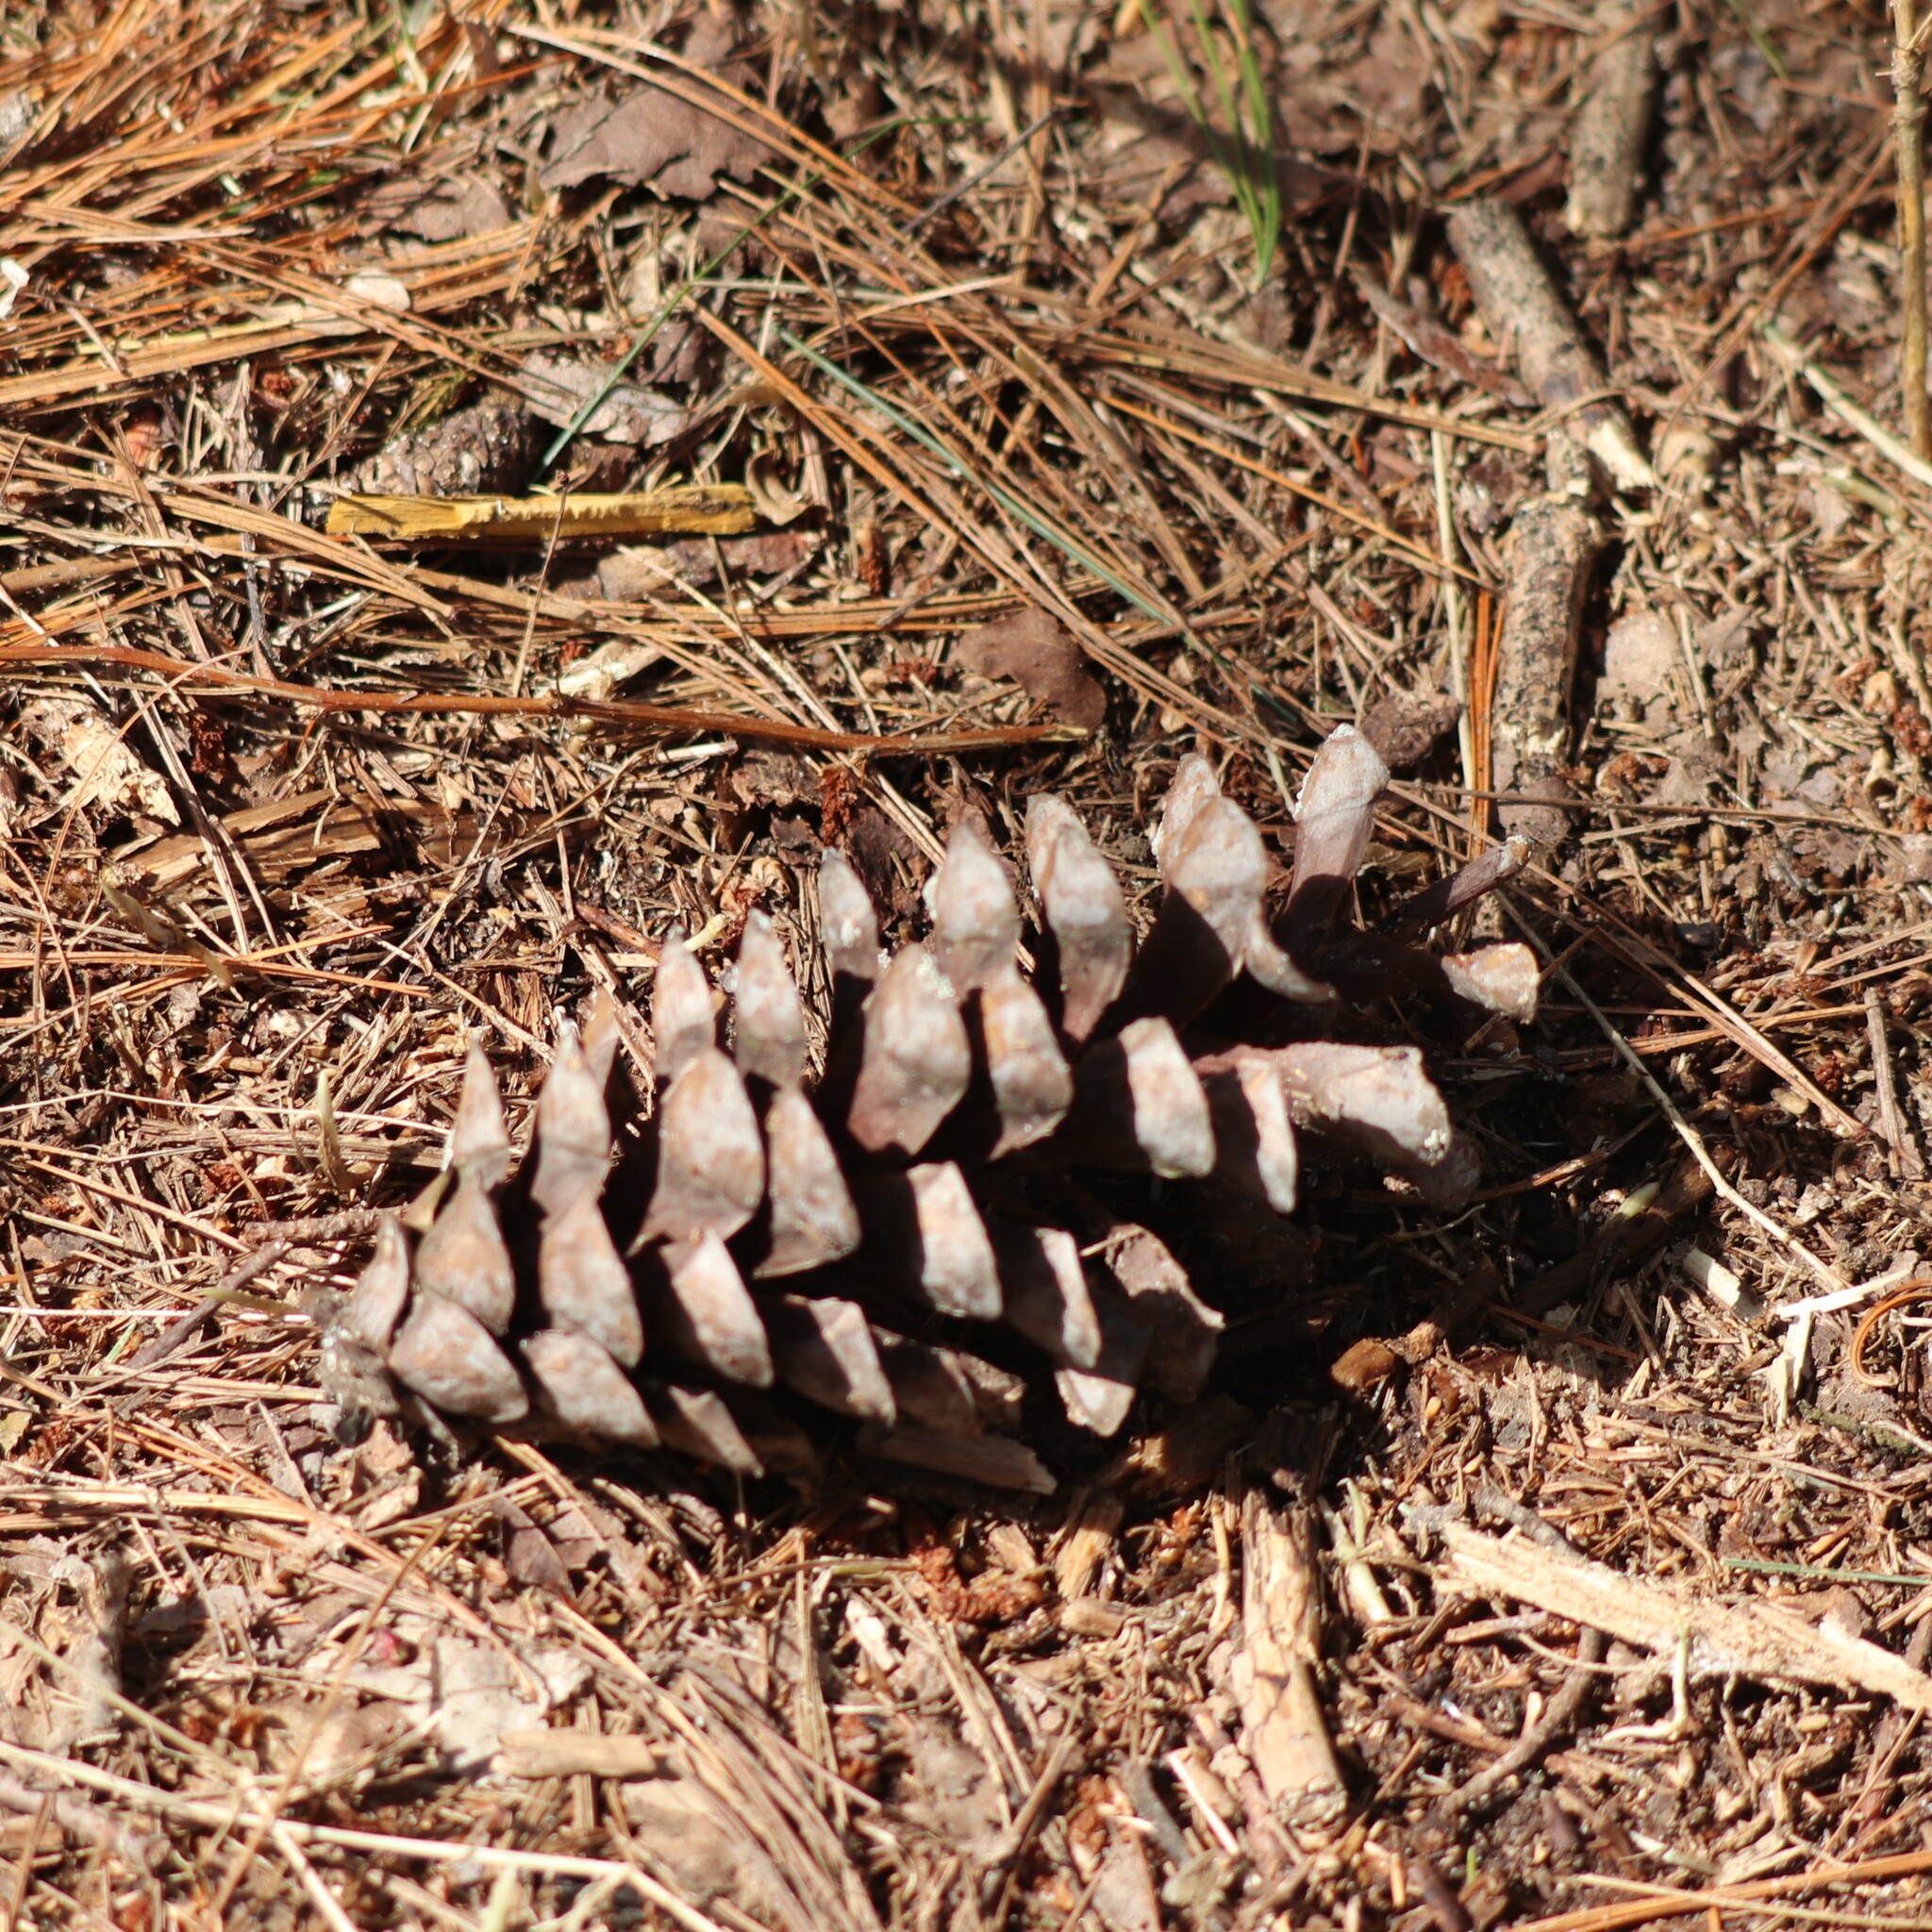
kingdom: Plantae
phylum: Tracheophyta
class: Pinopsida
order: Pinales
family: Pinaceae
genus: Pinus
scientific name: Pinus strobus
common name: Weymouth pine
